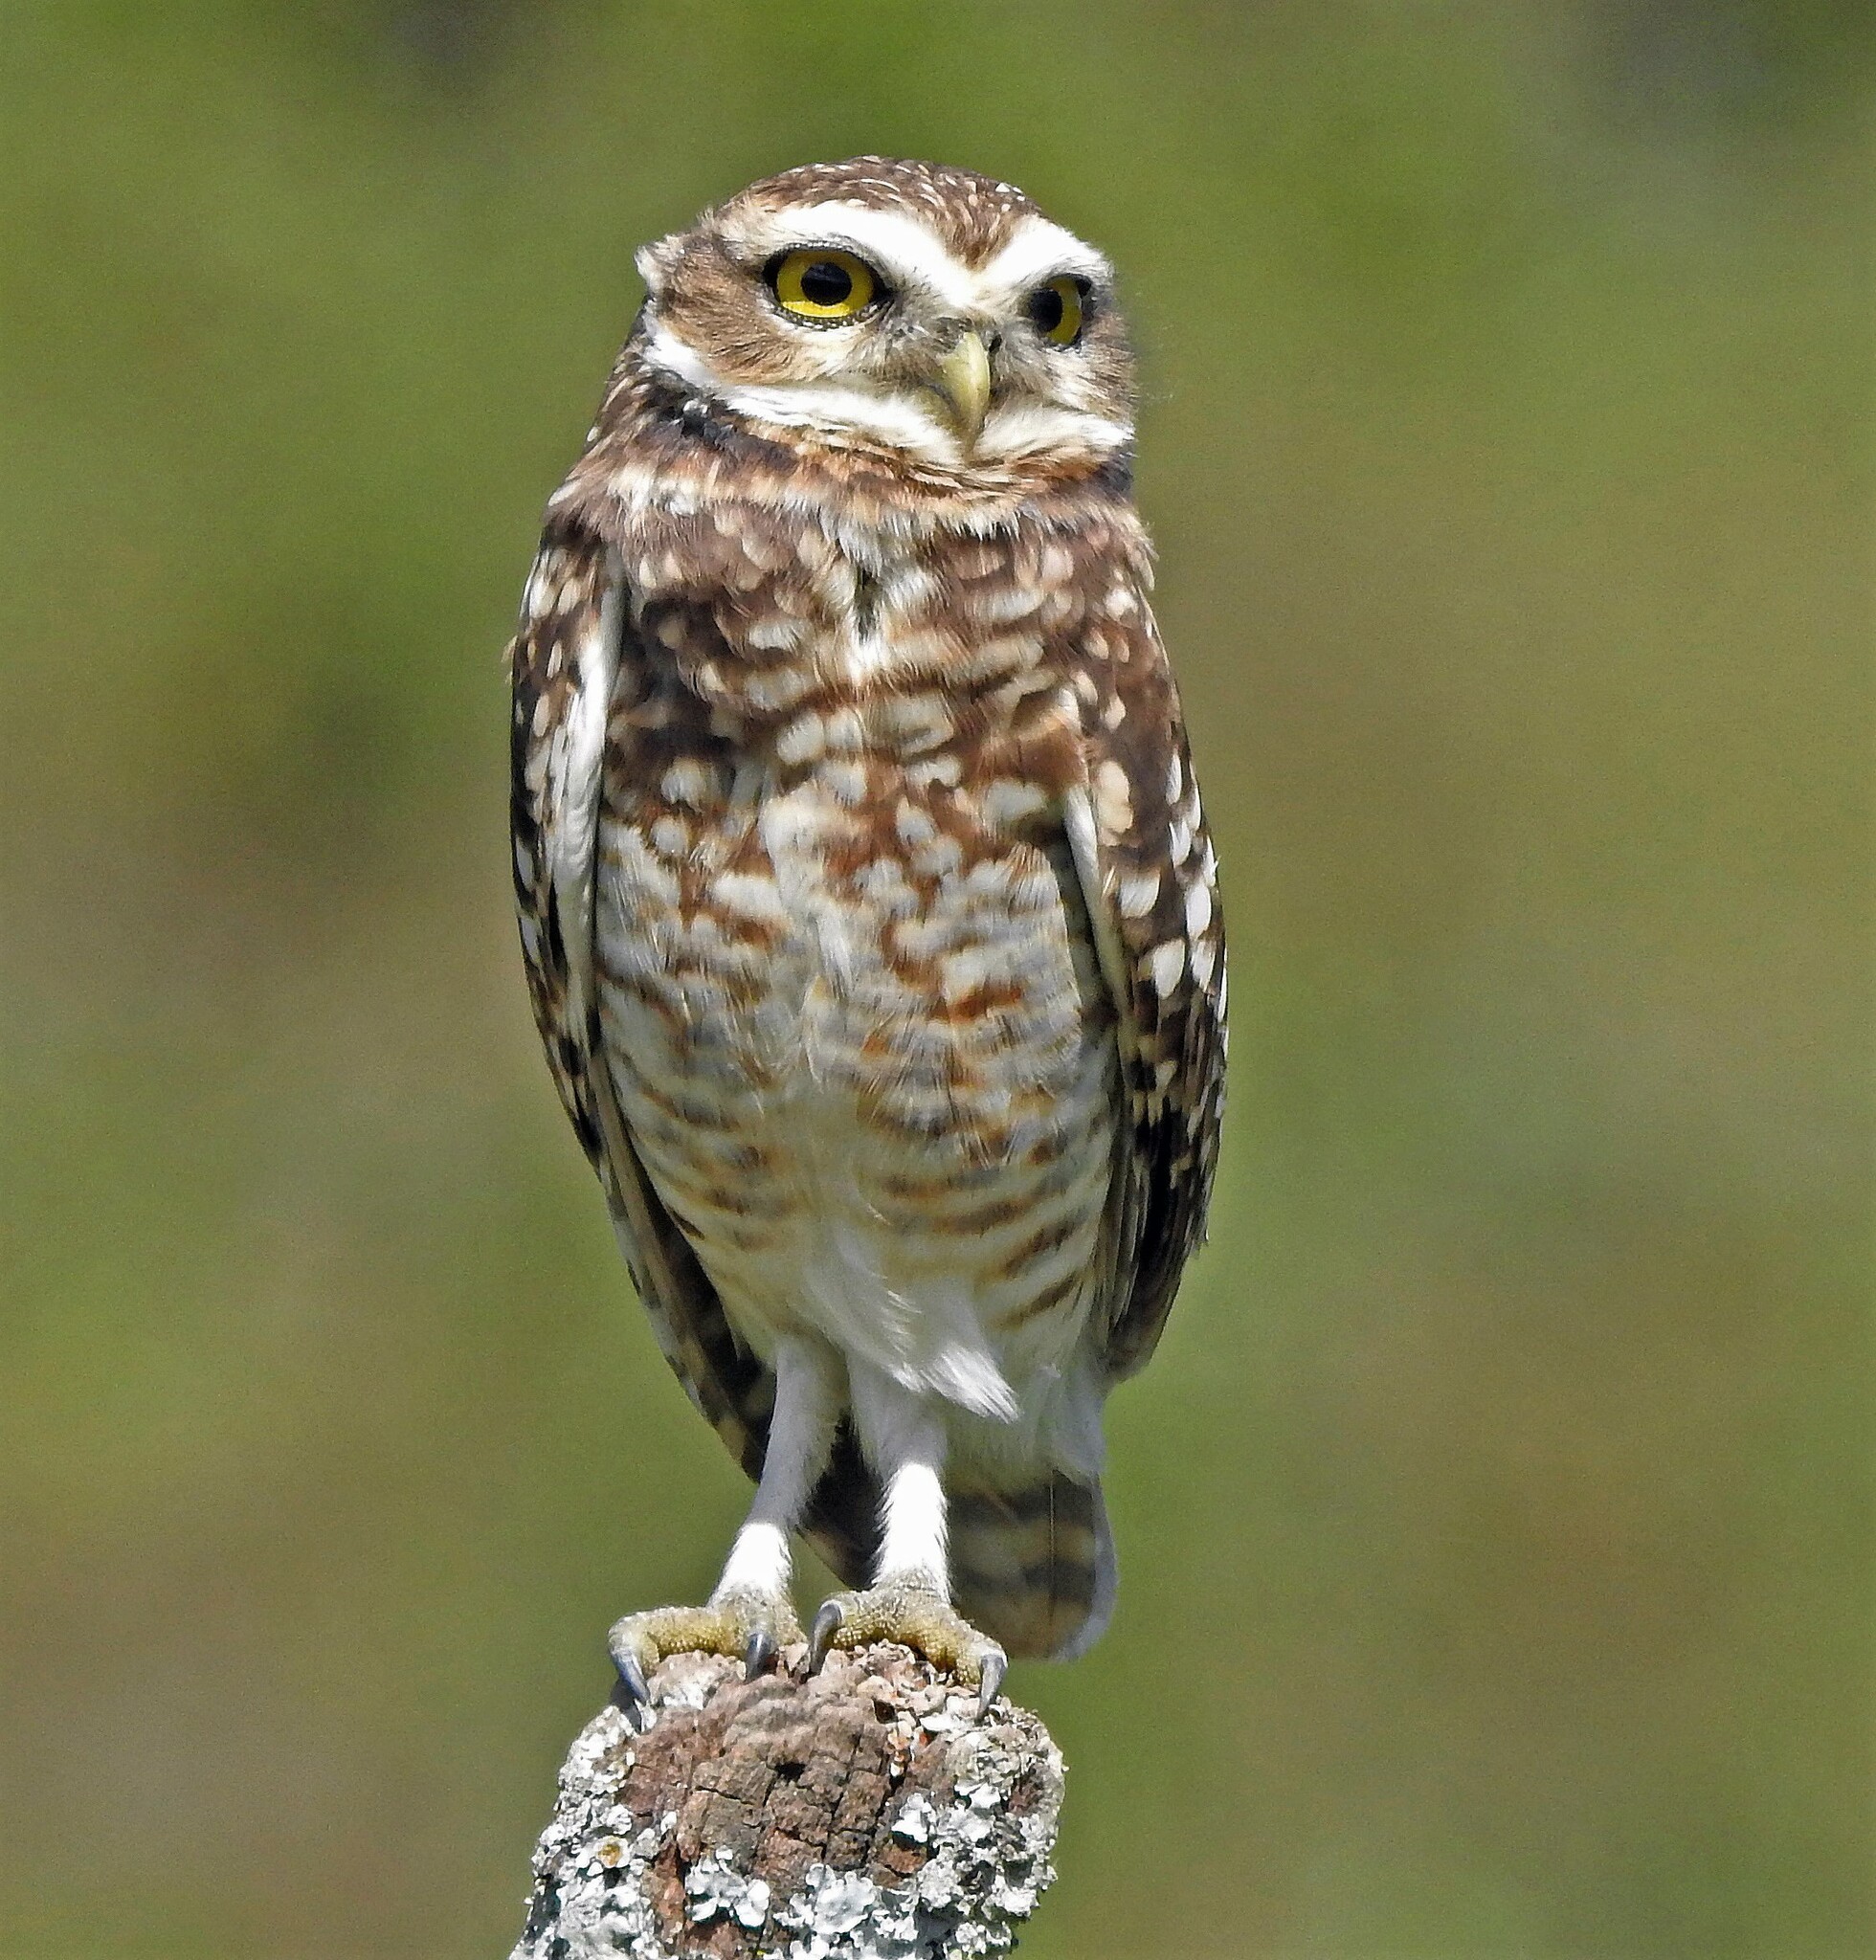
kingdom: Animalia
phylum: Chordata
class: Aves
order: Strigiformes
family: Strigidae
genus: Athene
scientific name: Athene cunicularia
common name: Burrowing owl
